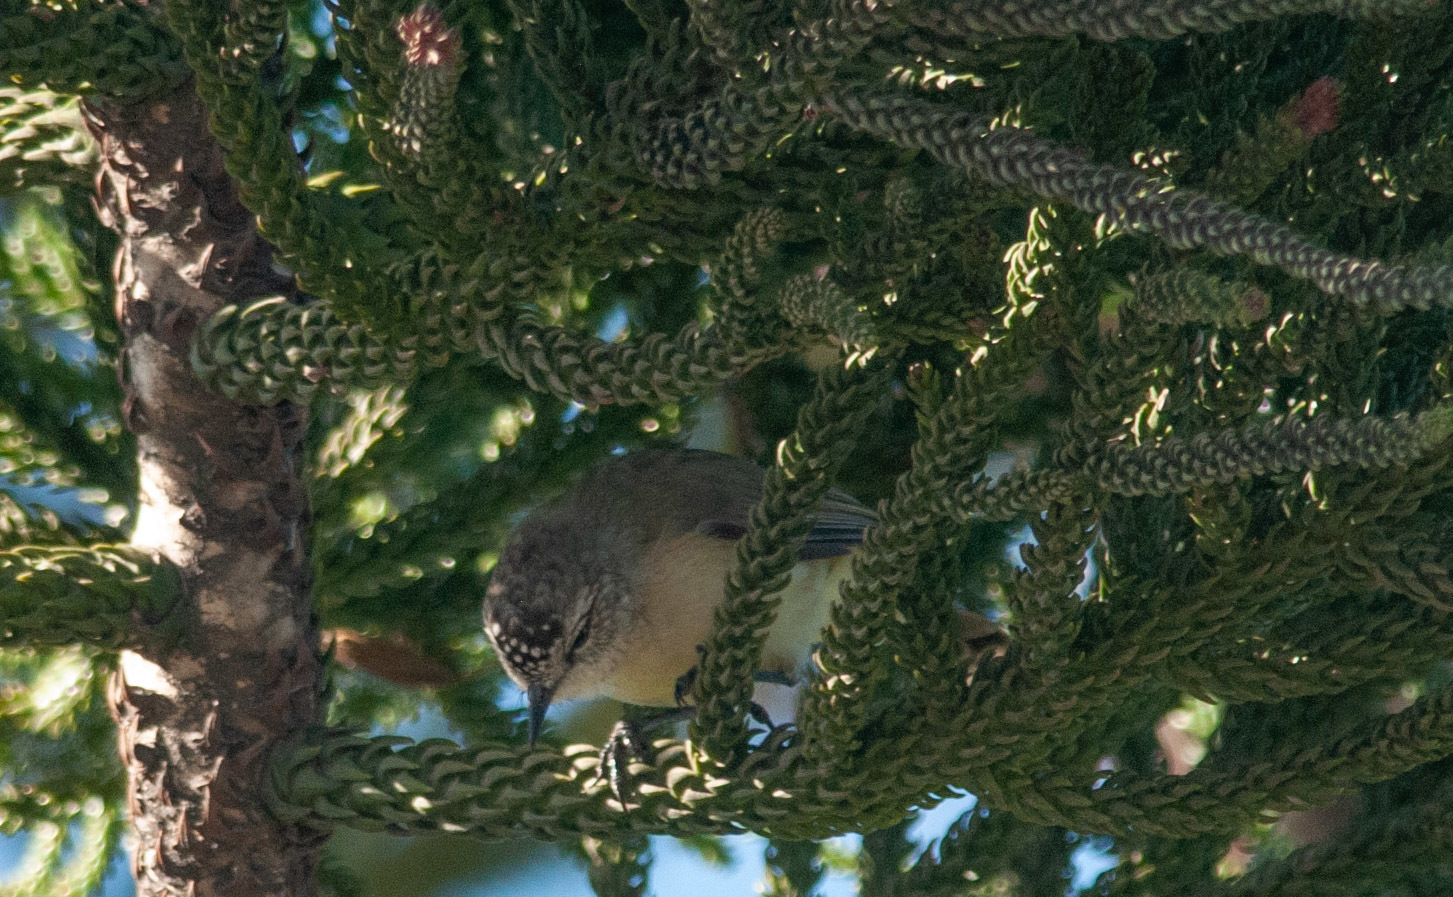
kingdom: Animalia
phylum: Chordata
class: Aves
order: Passeriformes
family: Acanthizidae
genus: Acanthiza
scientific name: Acanthiza chrysorrhoa
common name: Yellow-rumped thornbill
